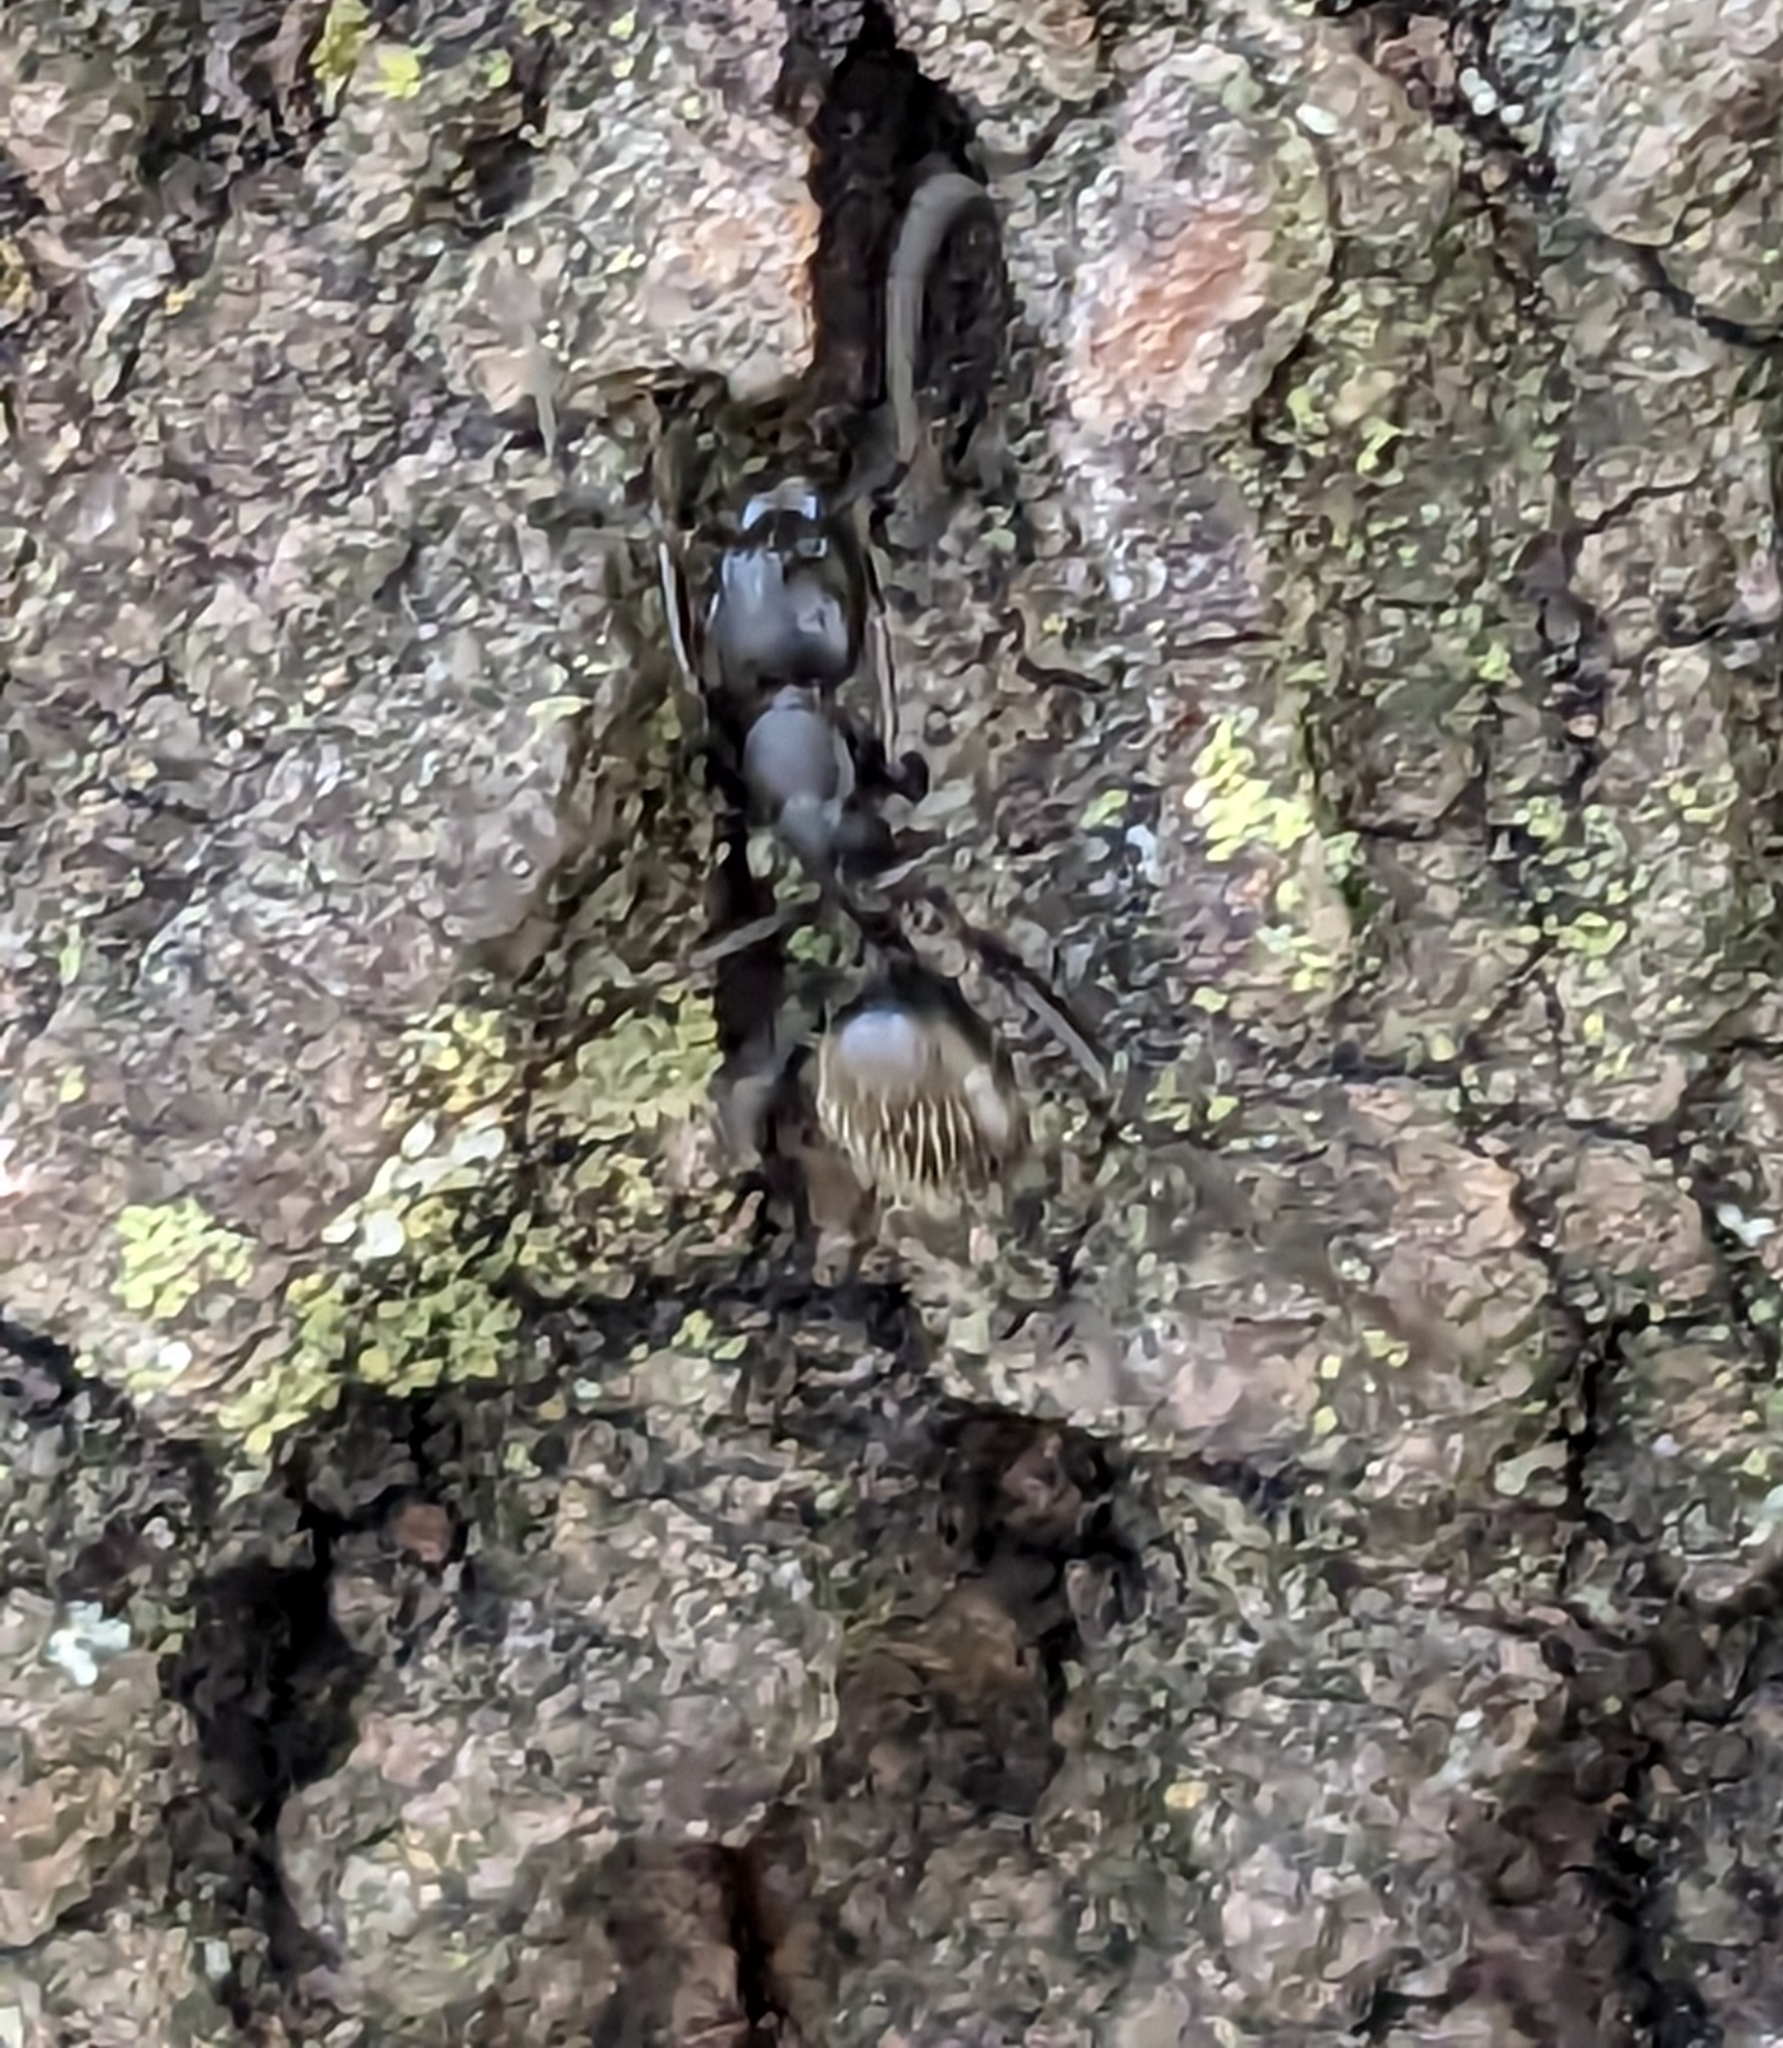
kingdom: Animalia
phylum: Arthropoda
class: Insecta
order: Hymenoptera
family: Formicidae
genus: Camponotus
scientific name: Camponotus pennsylvanicus
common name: Black carpenter ant
